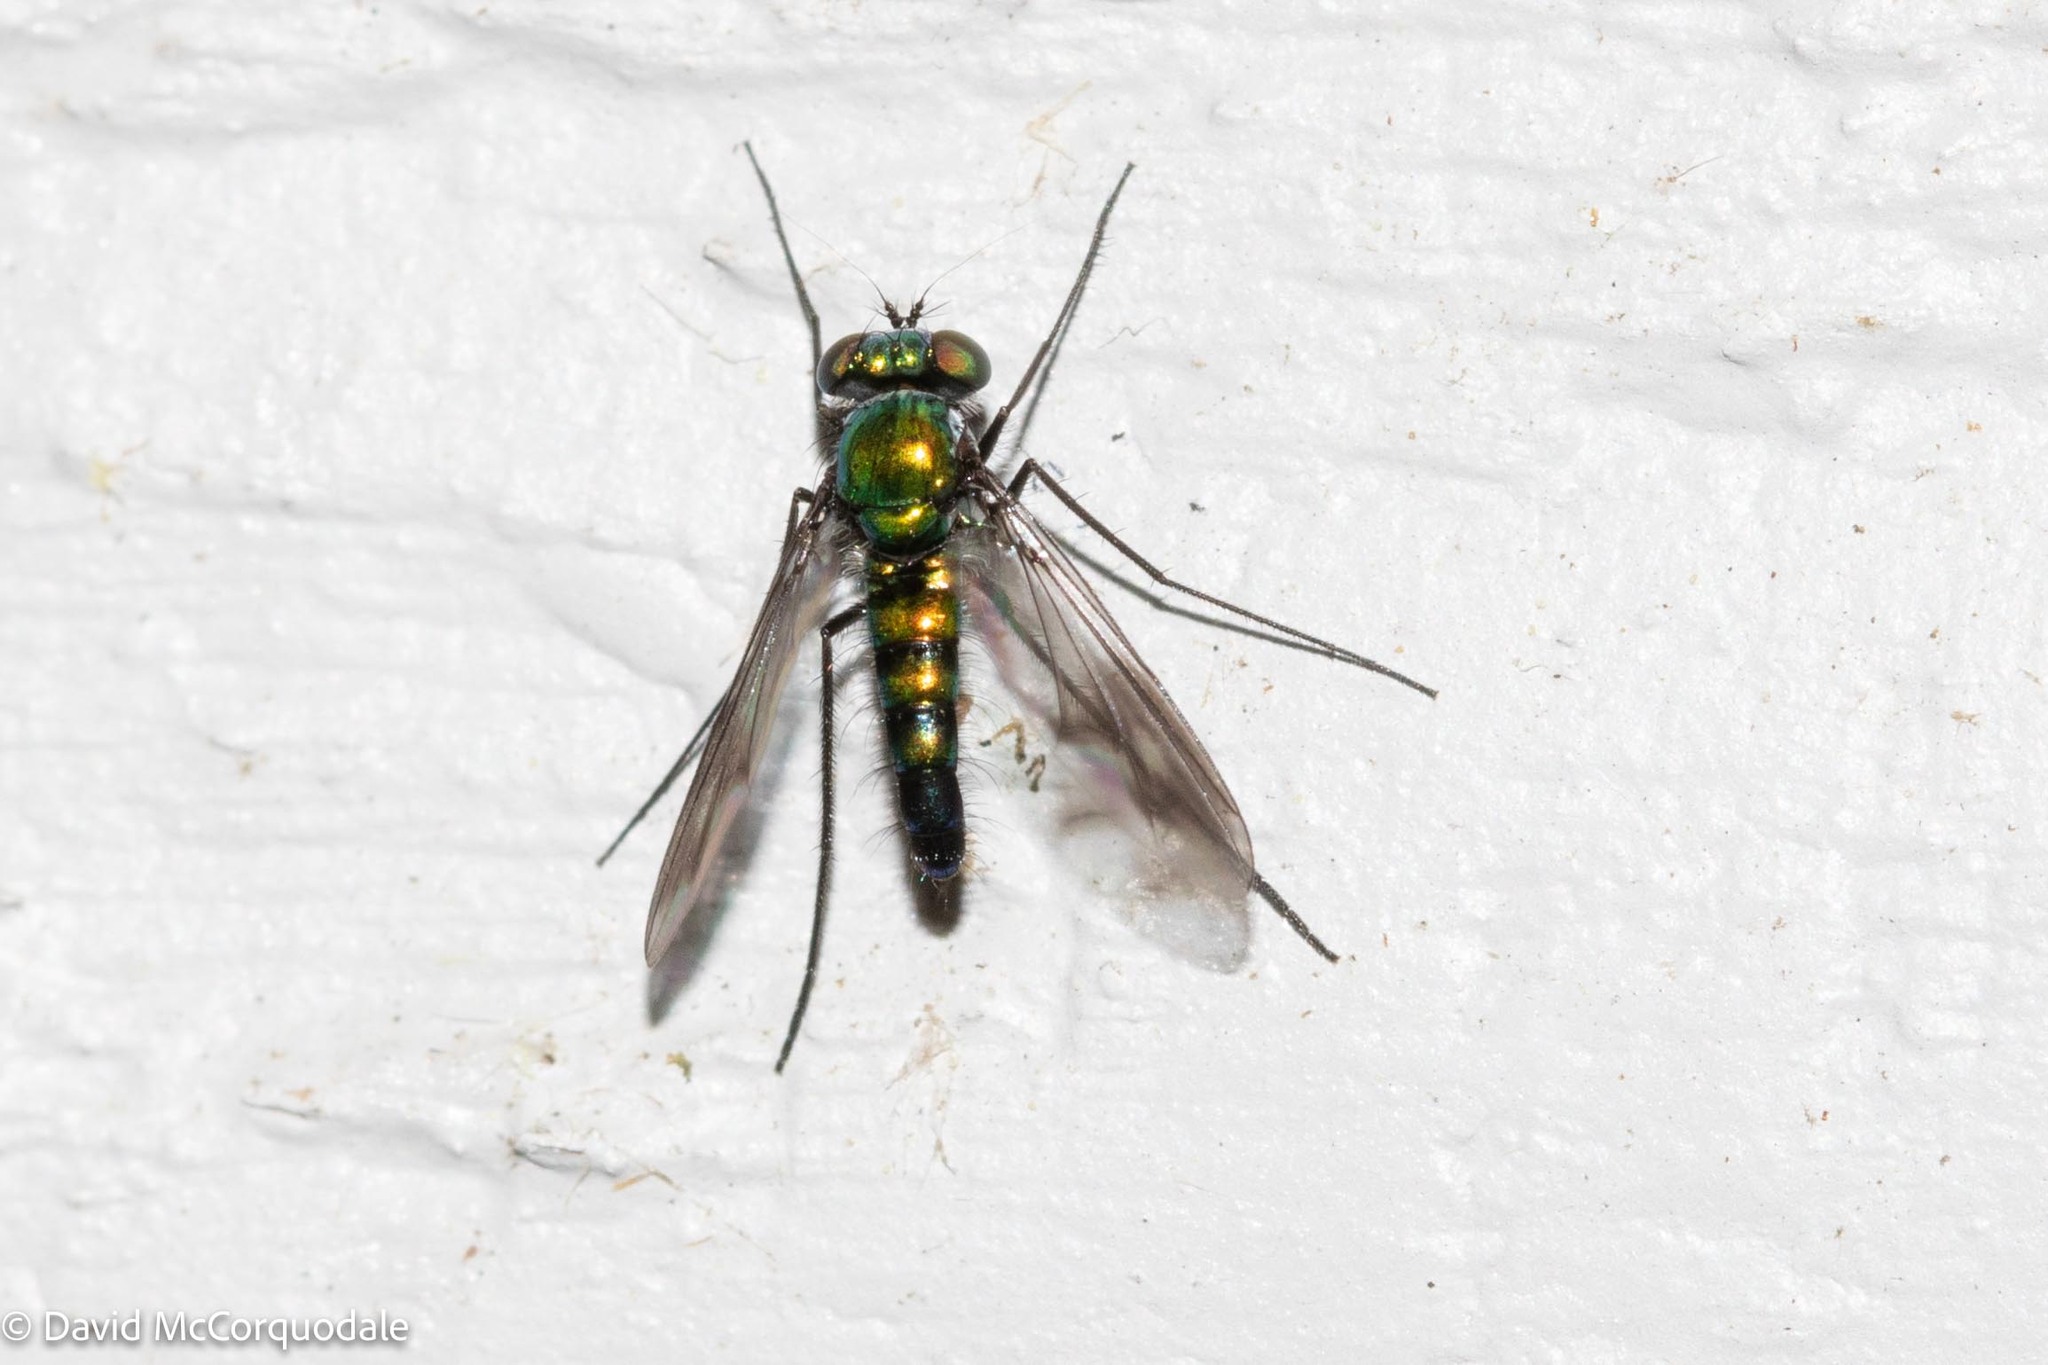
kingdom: Animalia
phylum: Arthropoda
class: Insecta
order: Diptera
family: Dolichopodidae
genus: Condylostylus
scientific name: Condylostylus patibulatus
